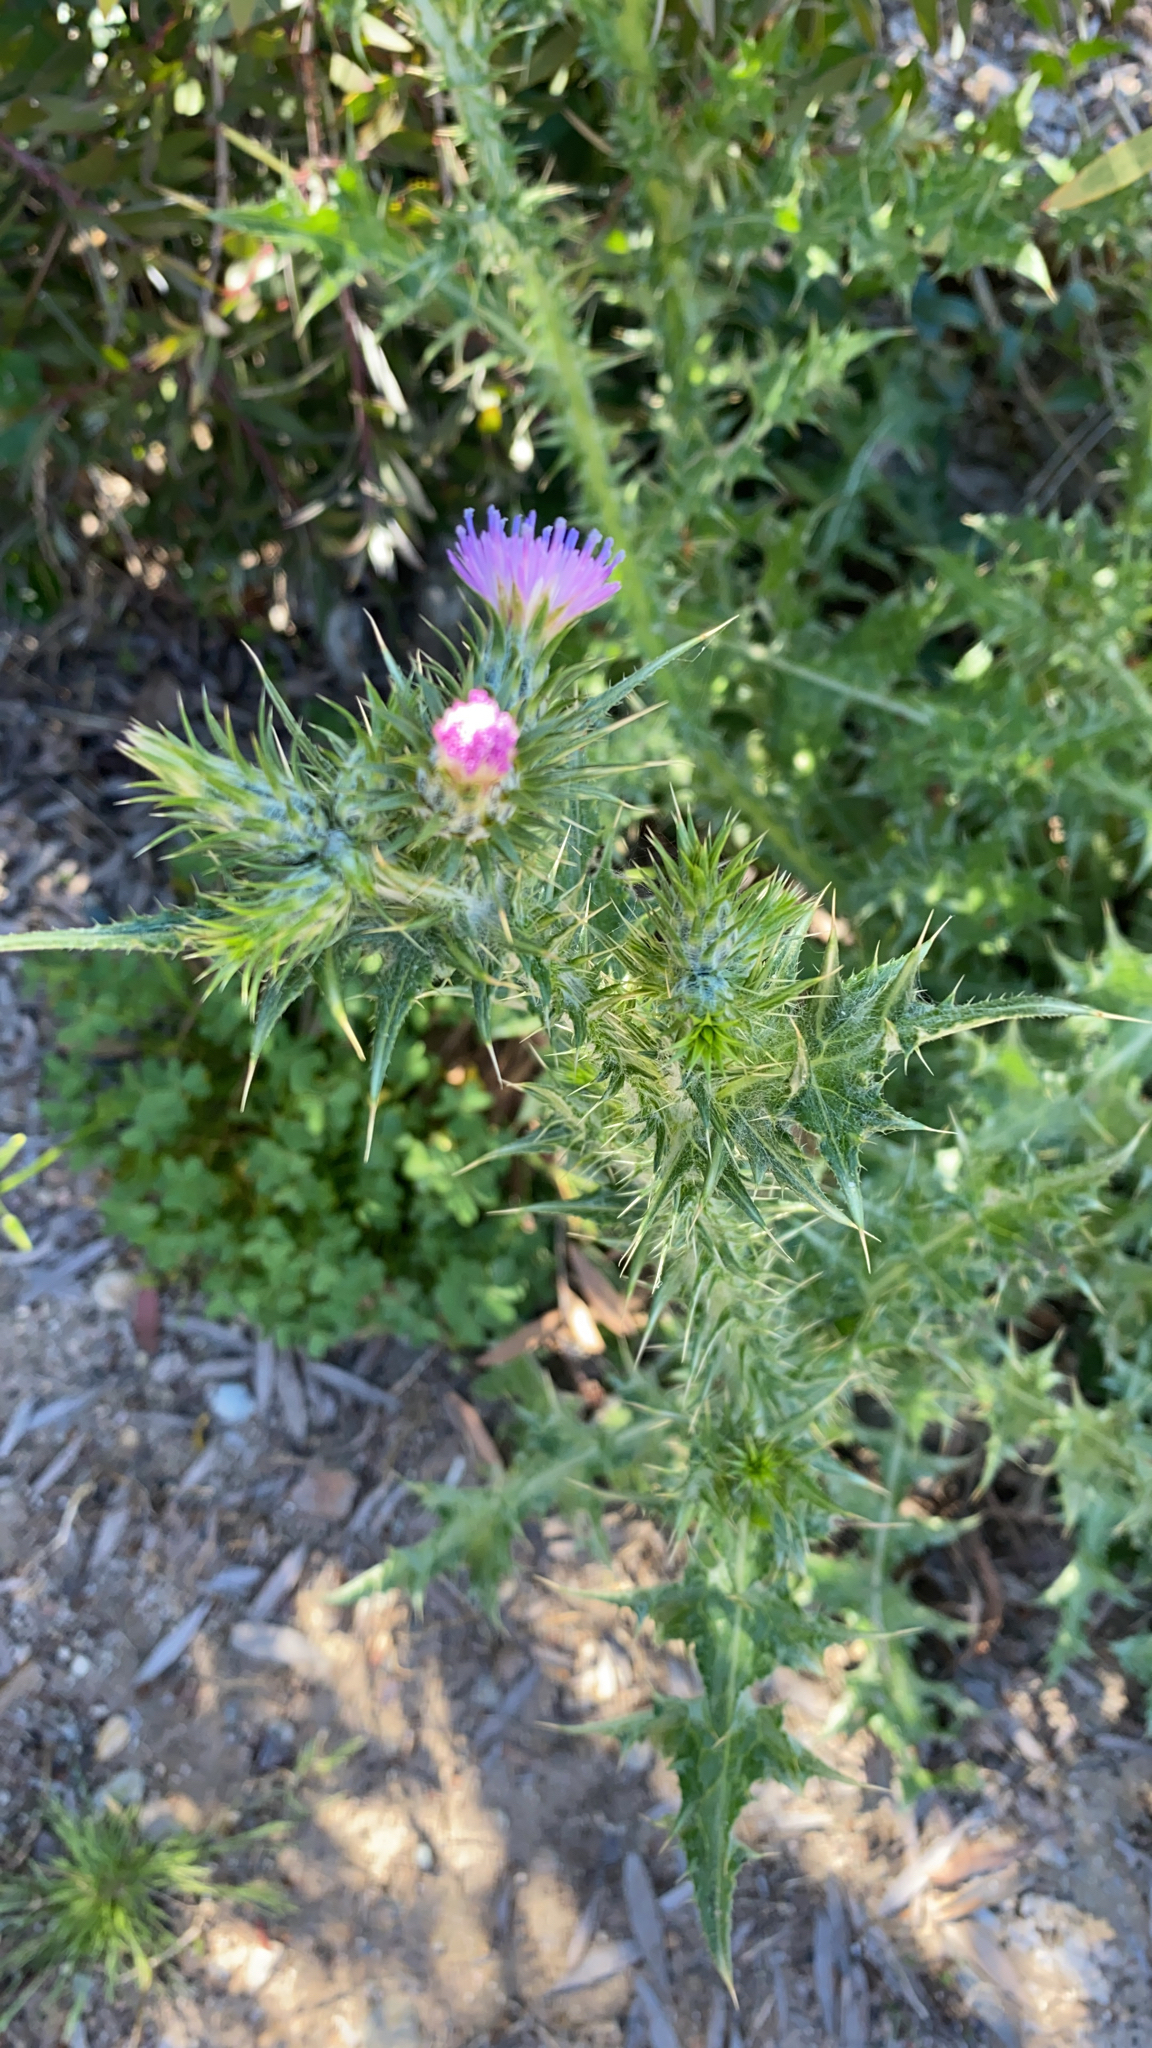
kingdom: Plantae
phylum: Tracheophyta
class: Magnoliopsida
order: Asterales
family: Asteraceae
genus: Carduus
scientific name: Carduus pycnocephalus
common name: Plymouth thistle
